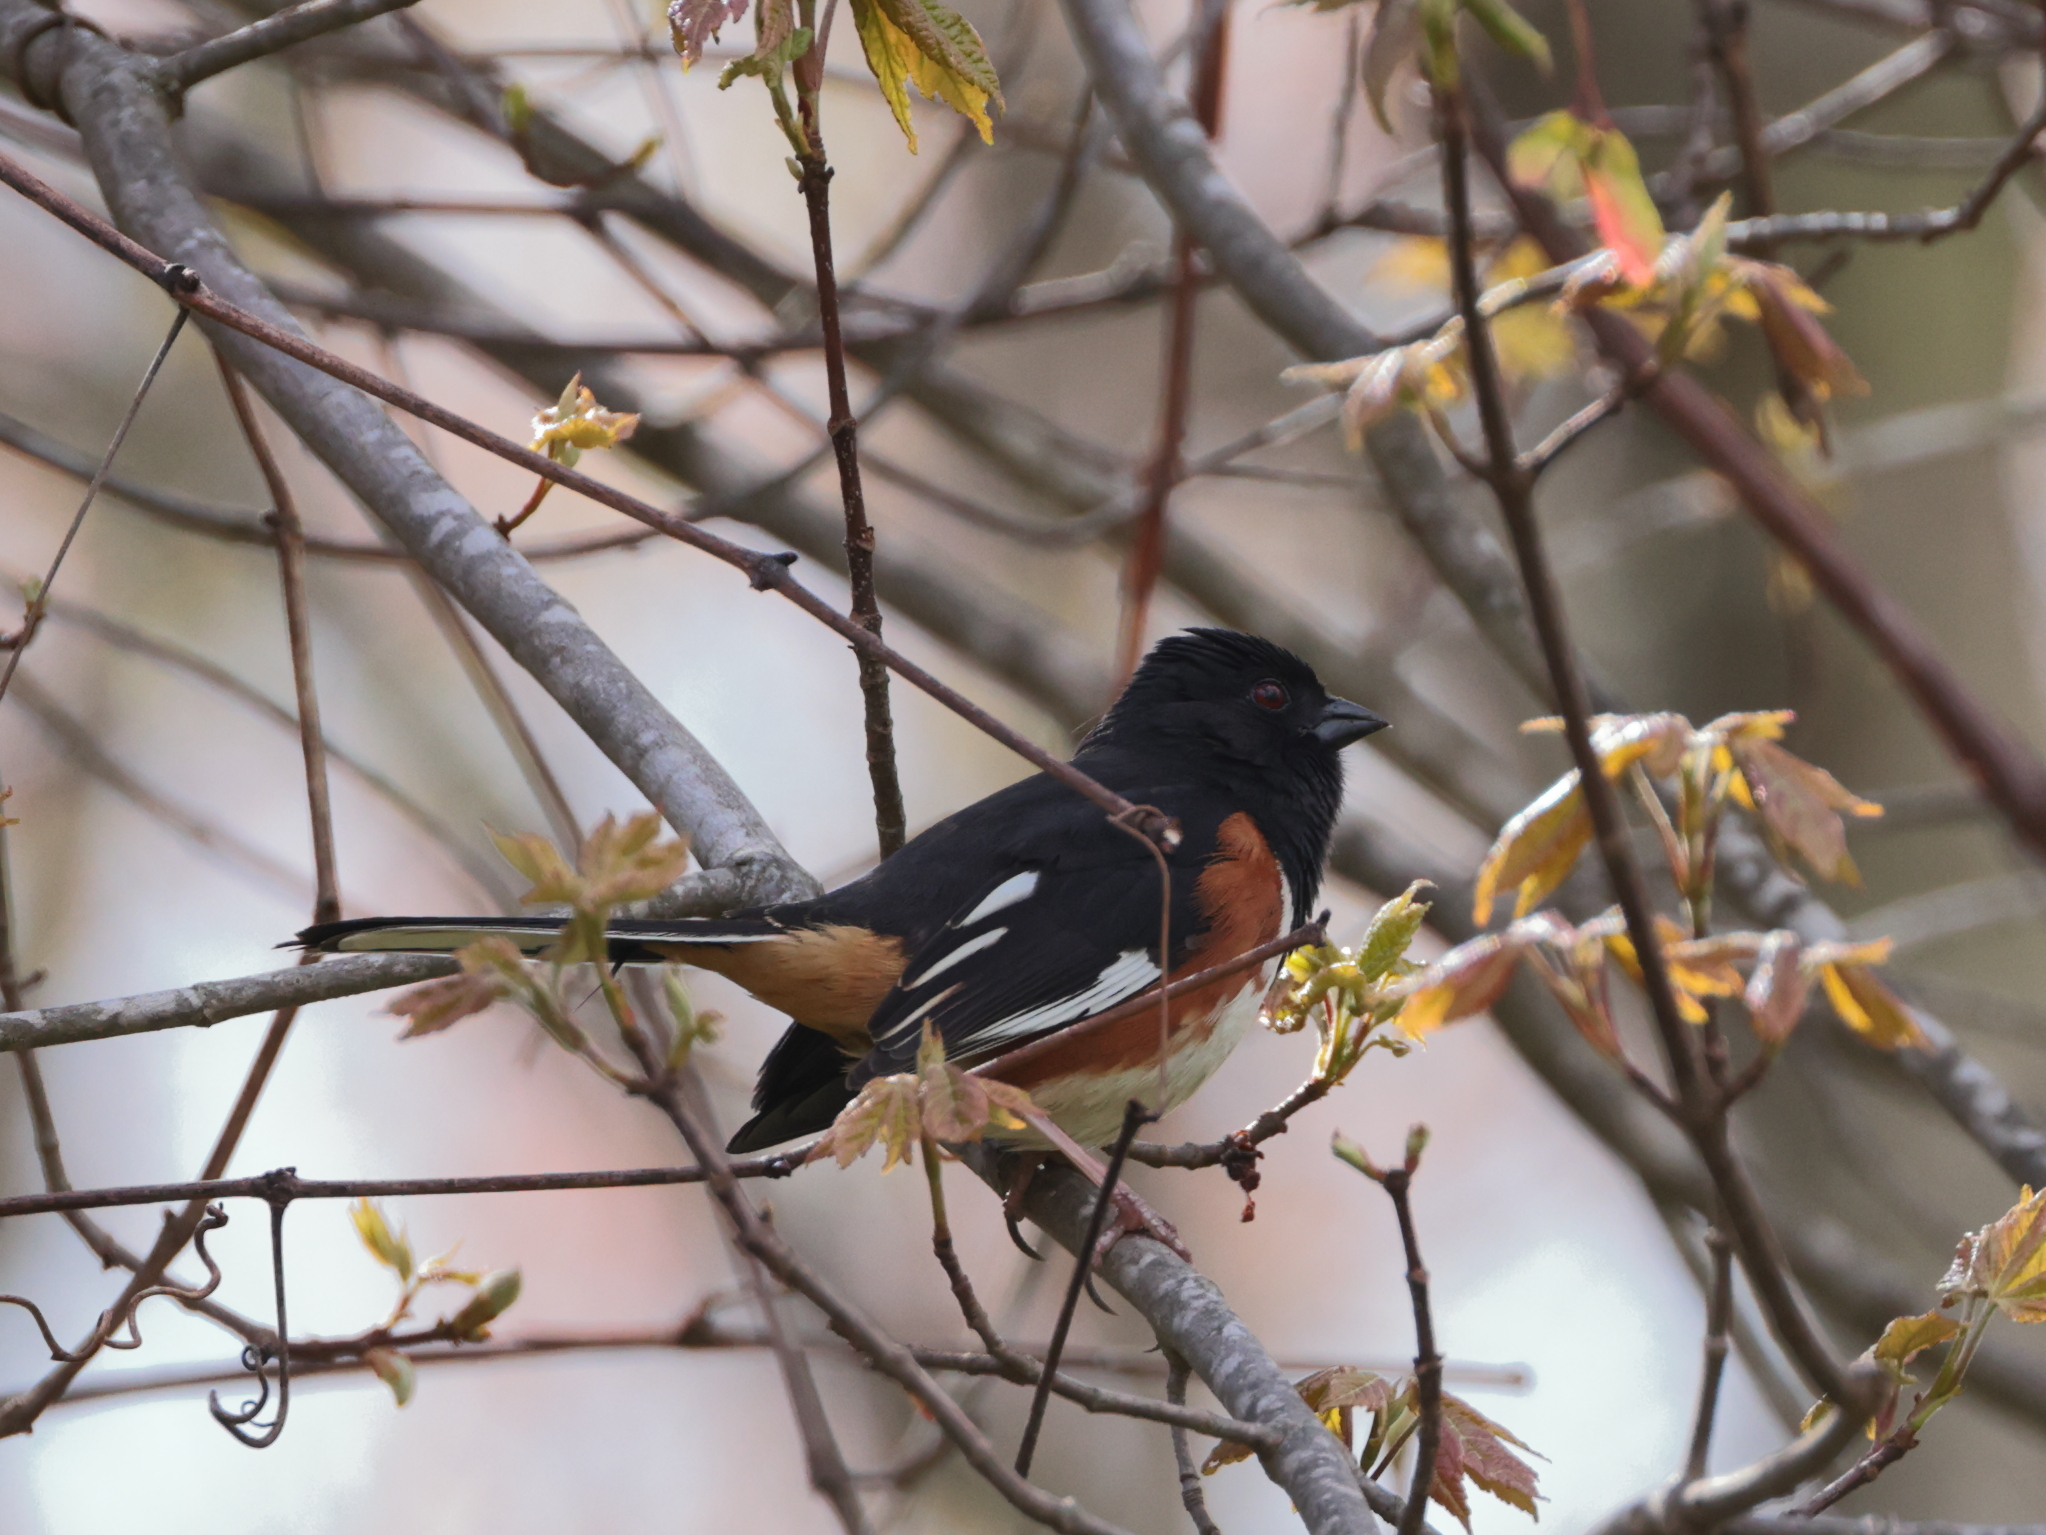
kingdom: Animalia
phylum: Chordata
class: Aves
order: Passeriformes
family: Passerellidae
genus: Pipilo
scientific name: Pipilo erythrophthalmus
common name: Eastern towhee
